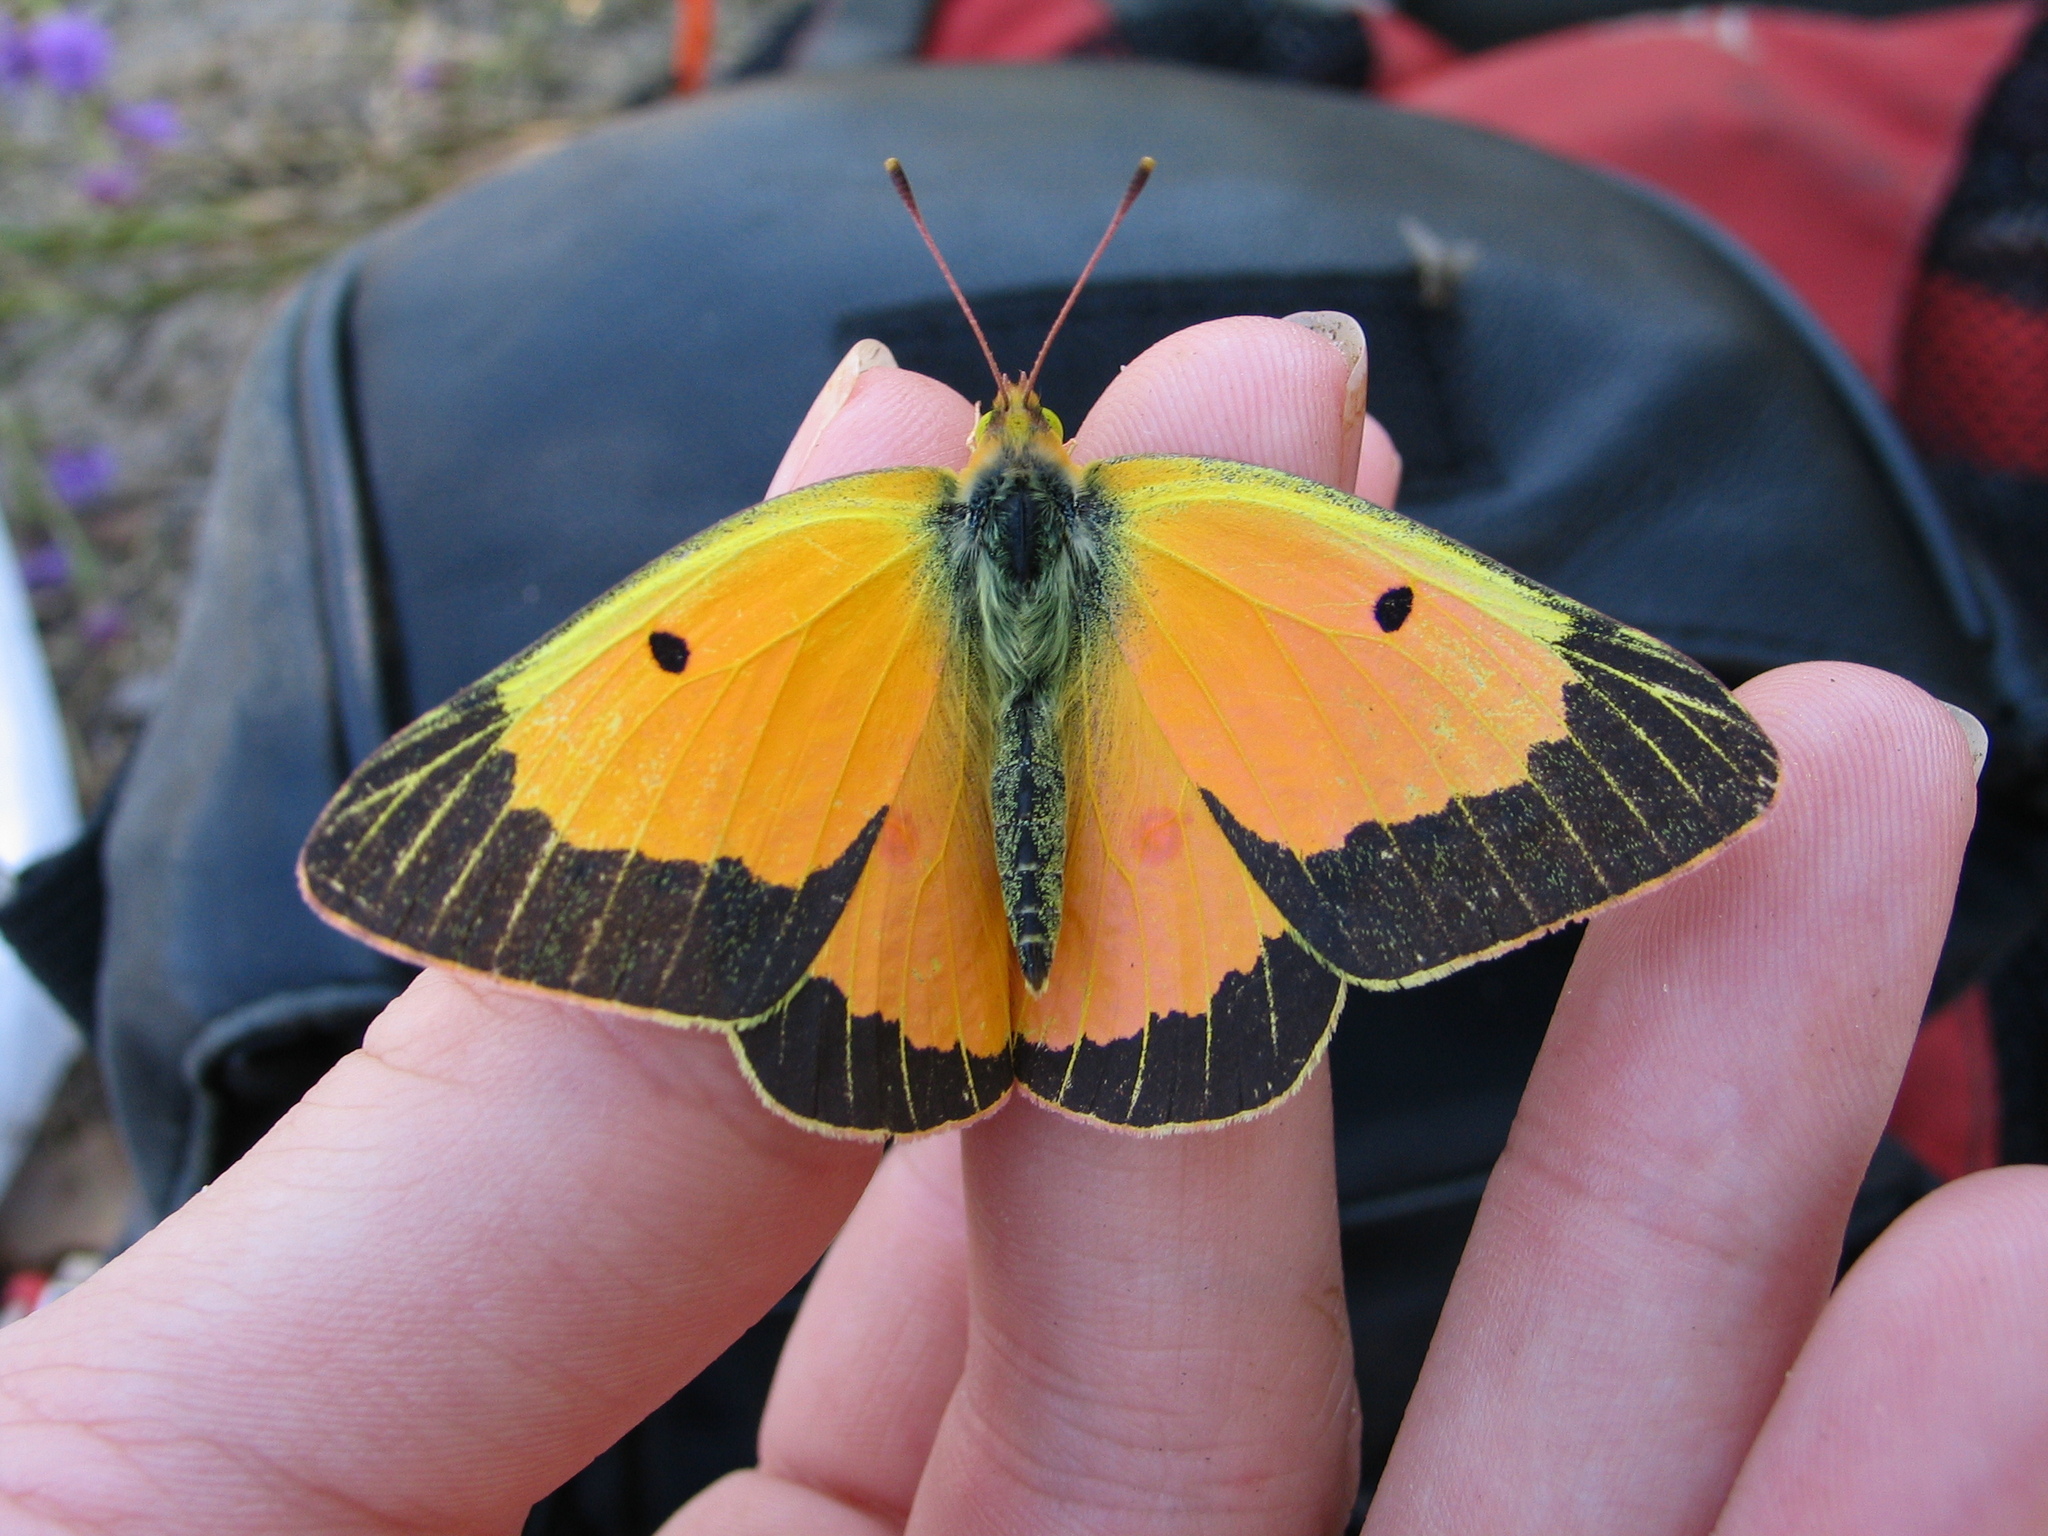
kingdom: Animalia
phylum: Arthropoda
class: Insecta
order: Lepidoptera
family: Pieridae
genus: Colias
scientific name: Colias eurytheme
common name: Alfalfa butterfly
